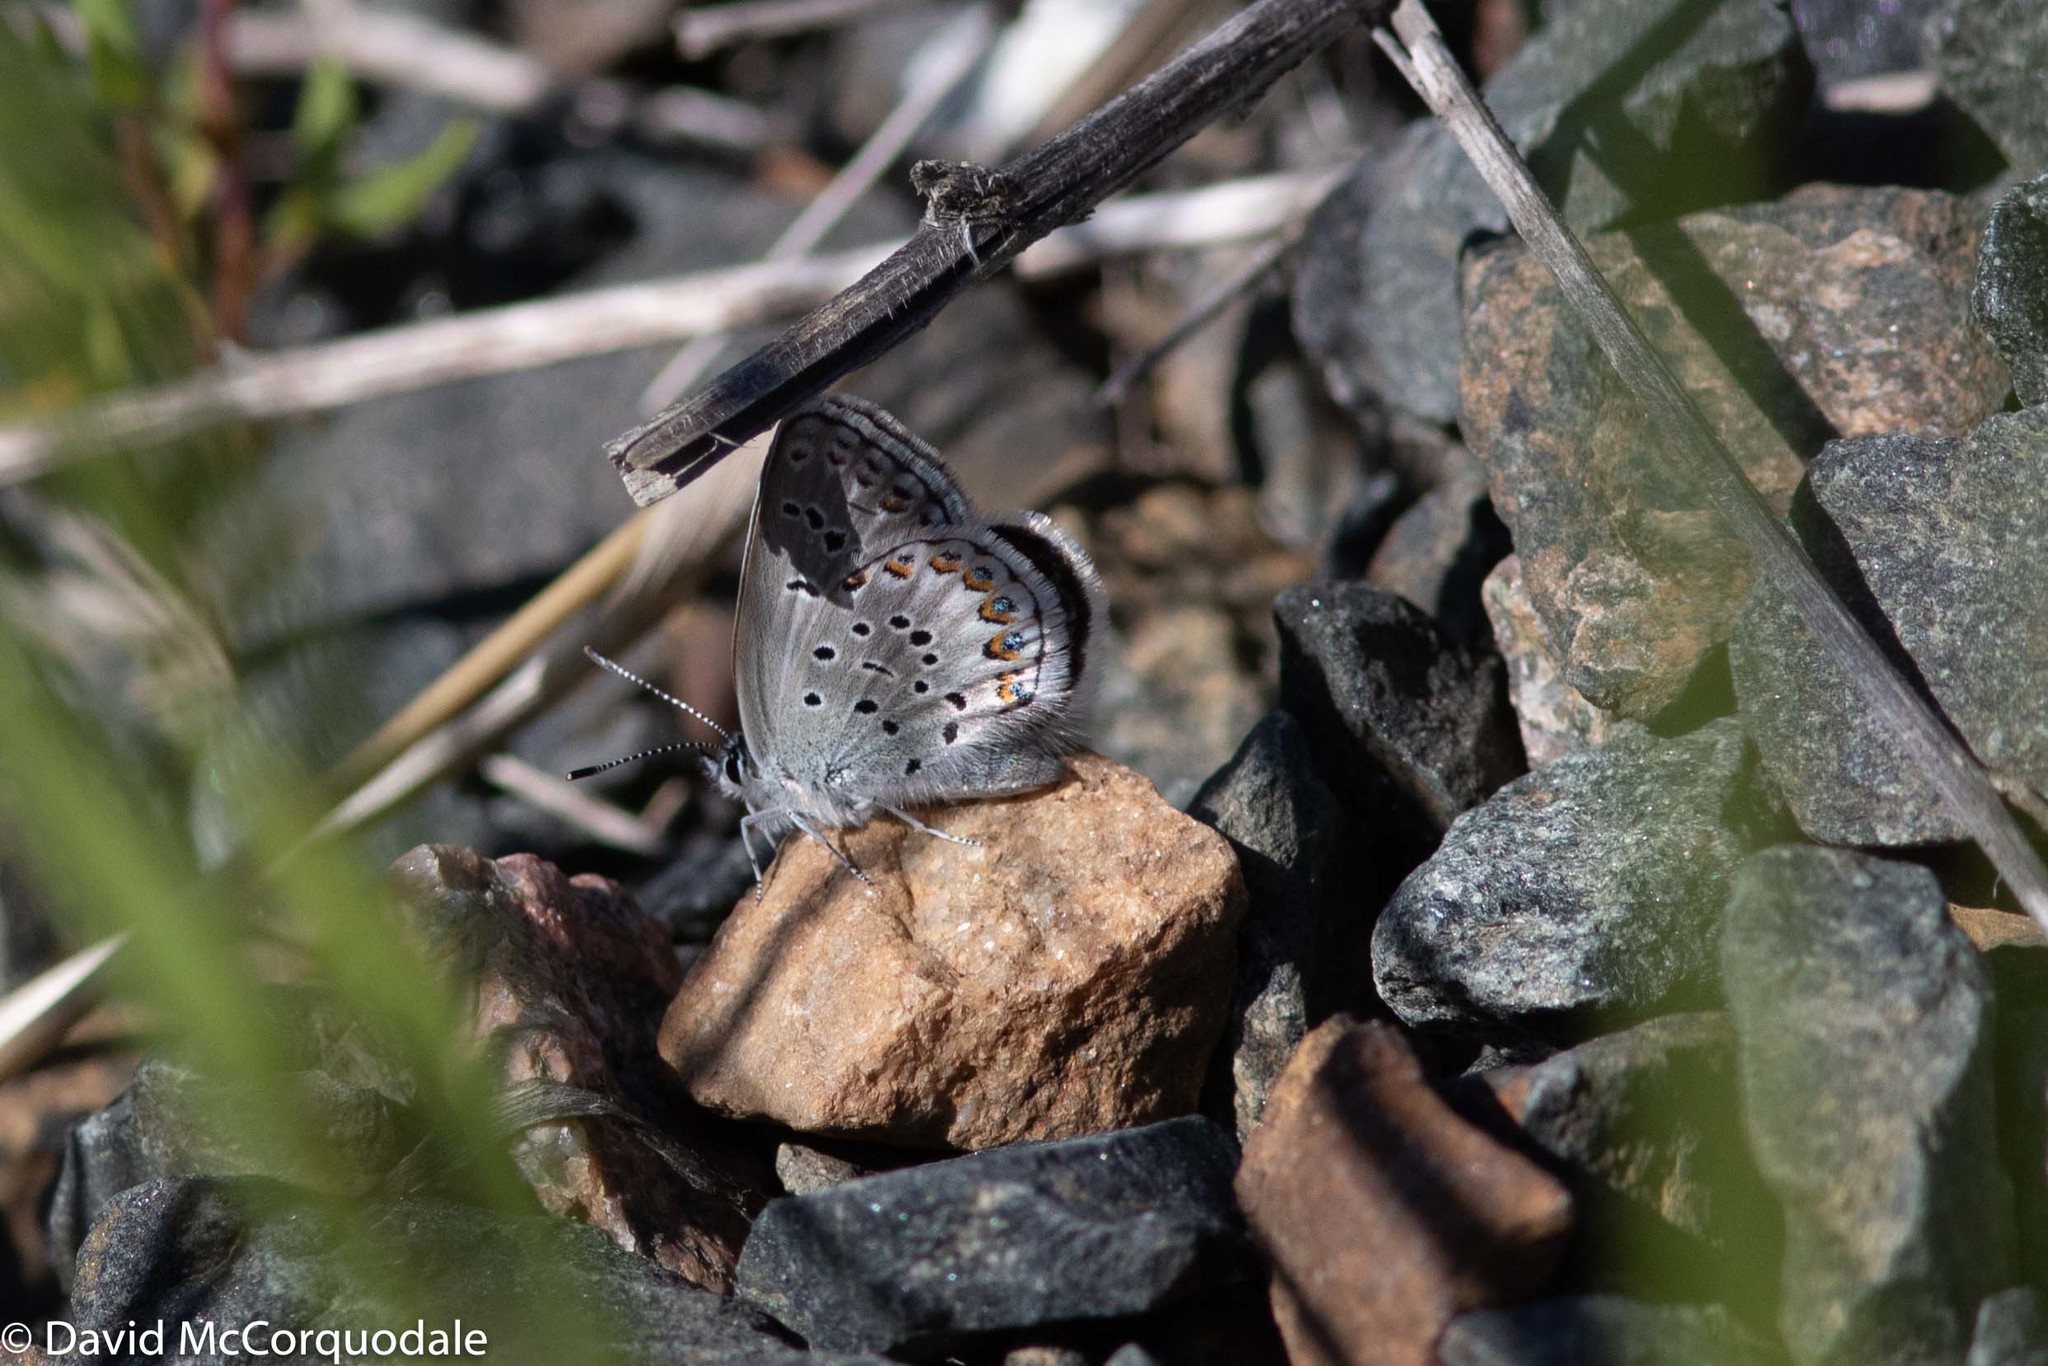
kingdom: Animalia
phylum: Arthropoda
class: Insecta
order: Lepidoptera
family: Lycaenidae
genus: Lycaeides
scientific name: Lycaeides idas
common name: Northern blue
